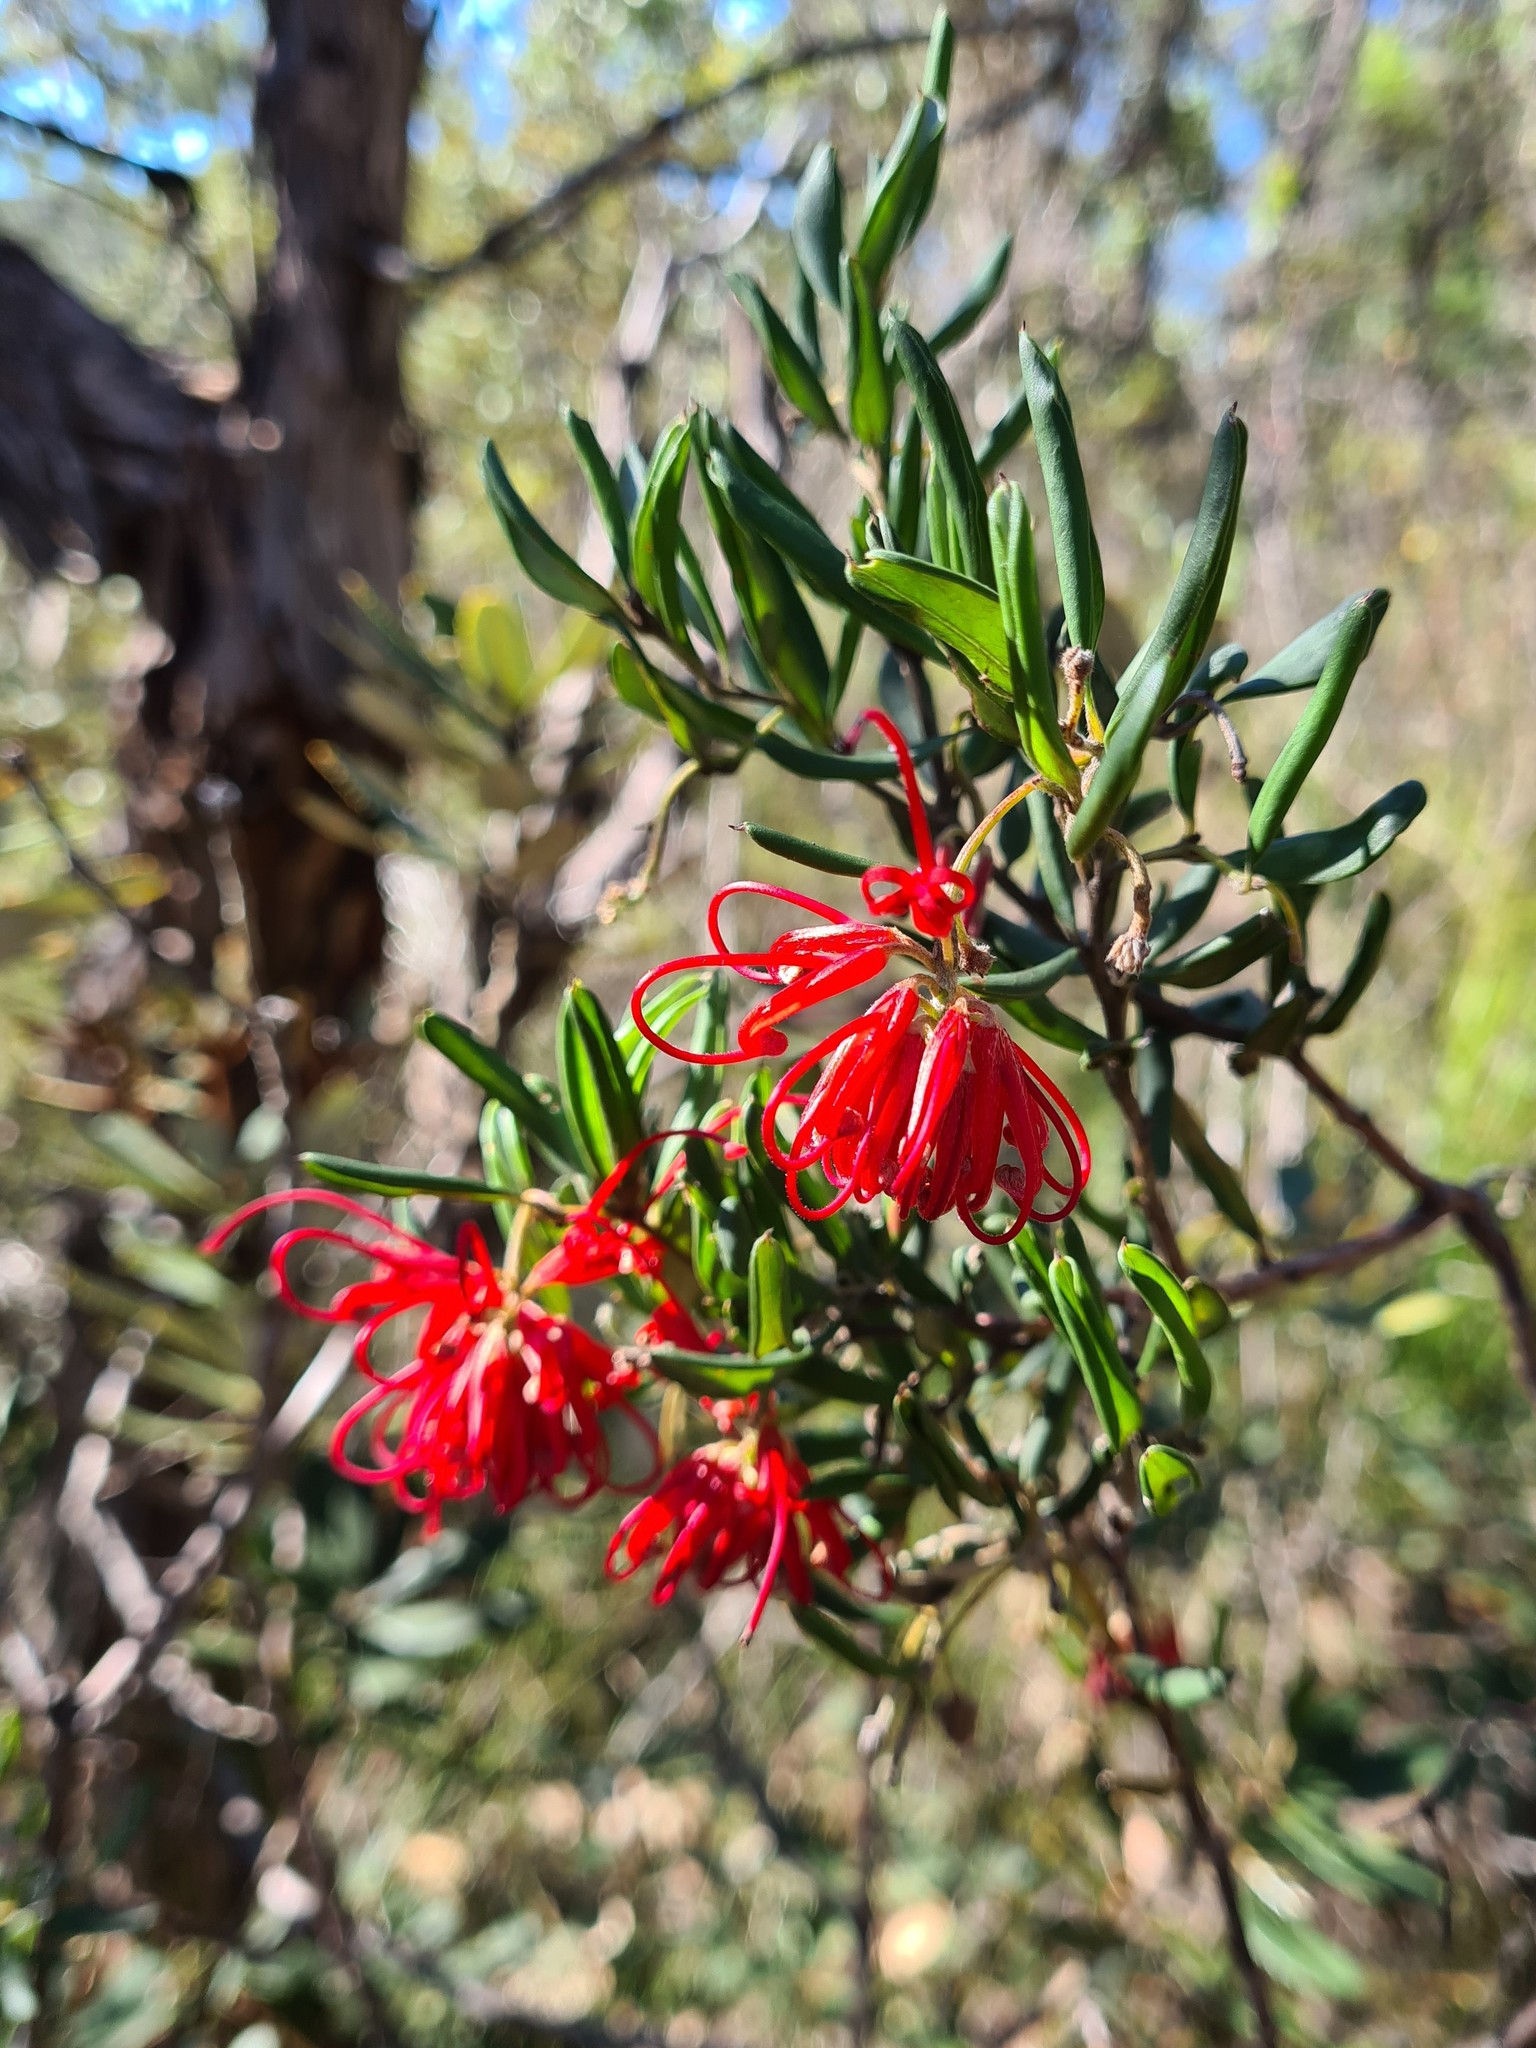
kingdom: Plantae
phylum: Tracheophyta
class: Magnoliopsida
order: Proteales
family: Proteaceae
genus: Grevillea
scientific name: Grevillea speciosa
